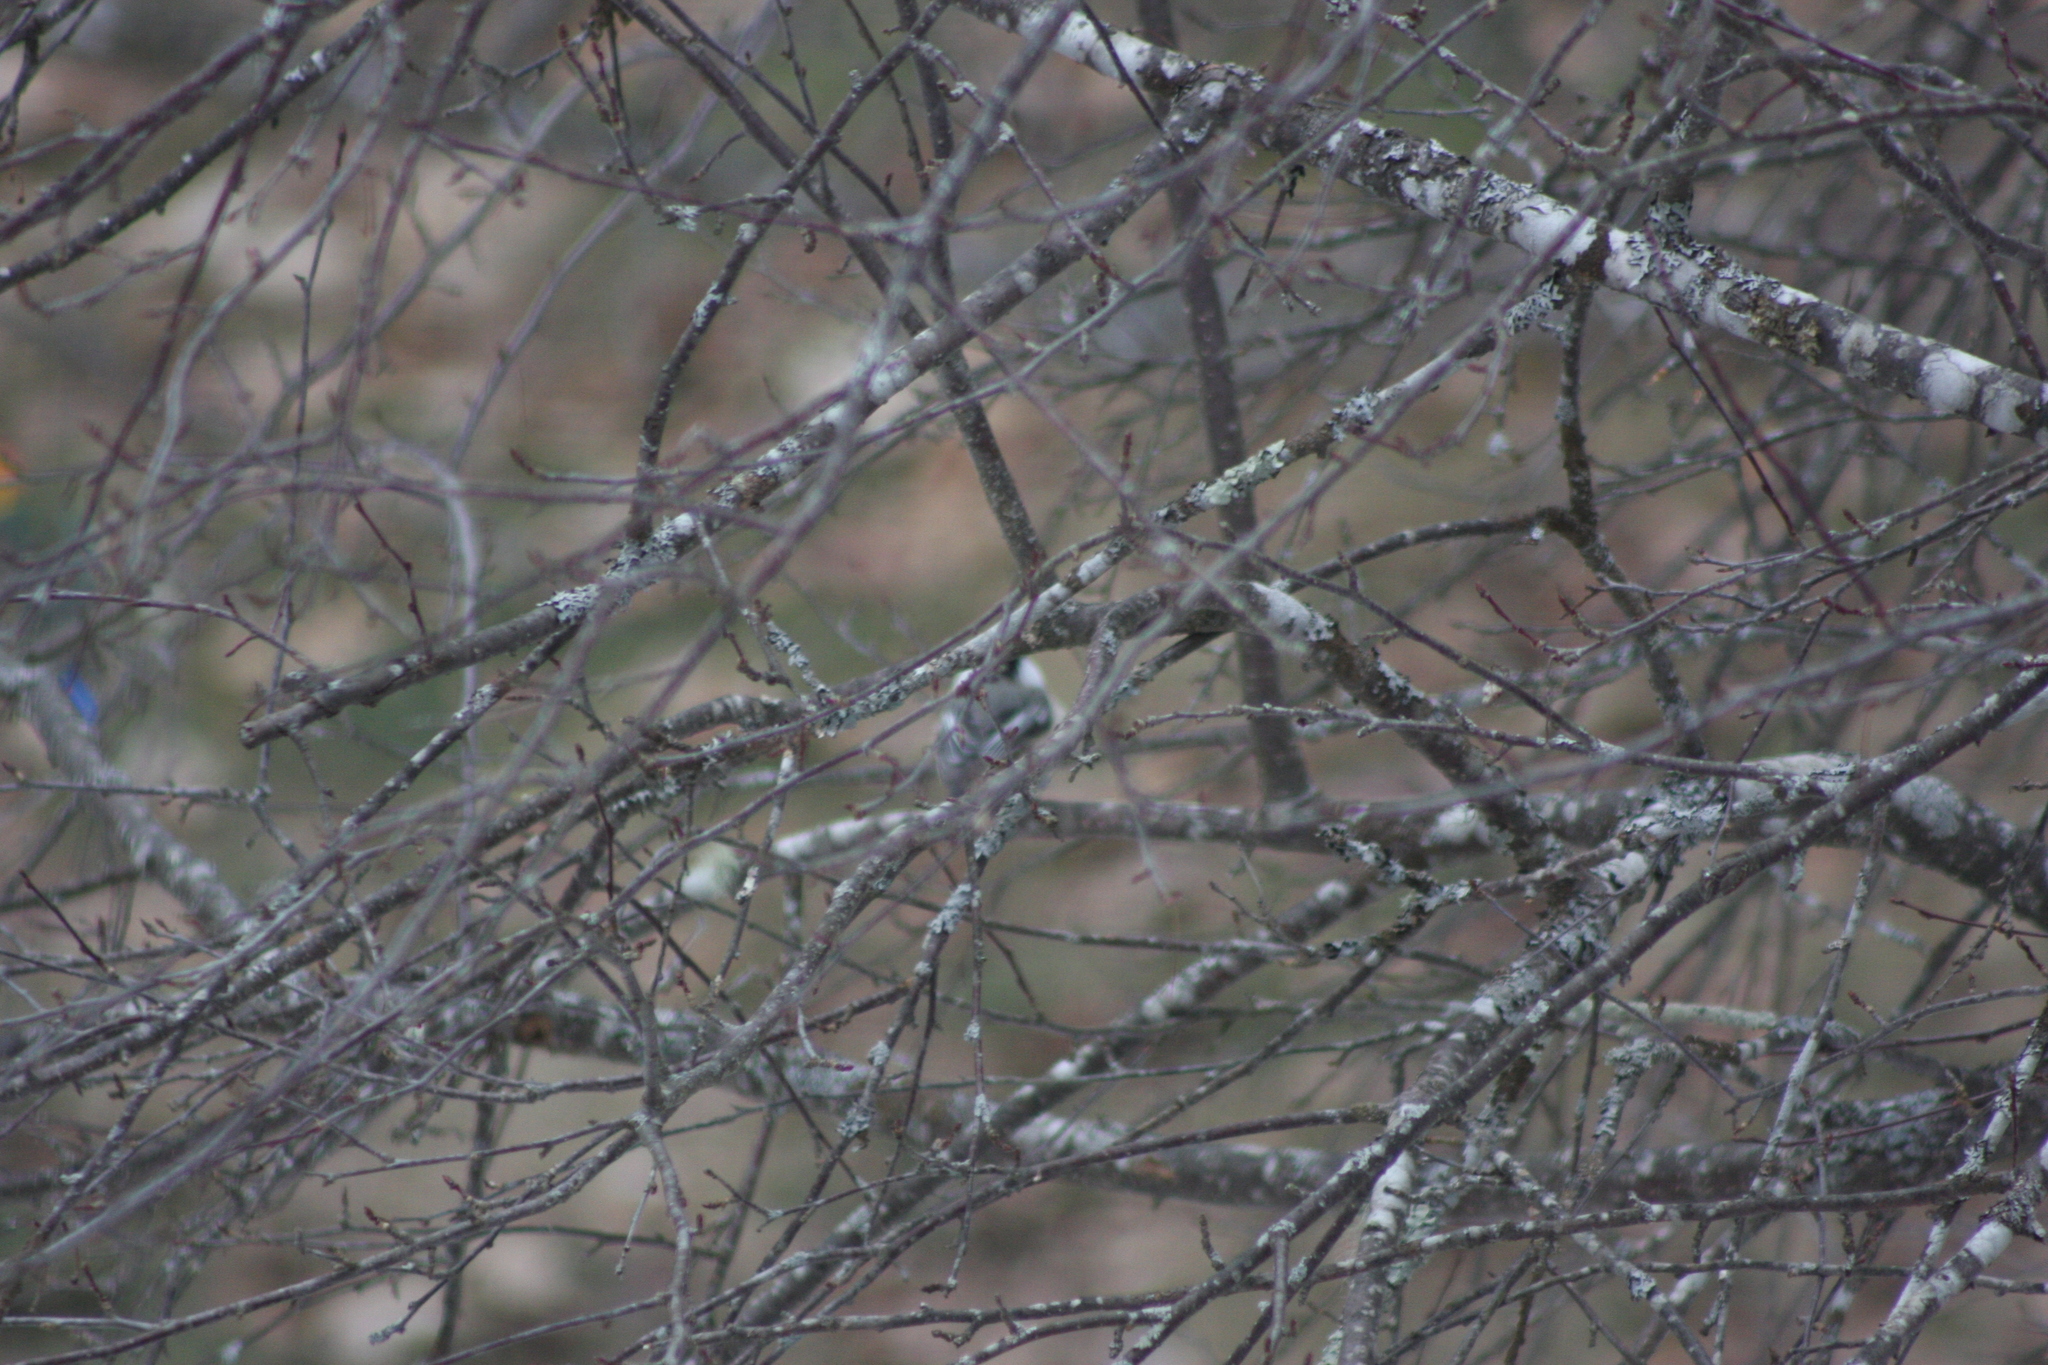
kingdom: Animalia
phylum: Chordata
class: Aves
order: Passeriformes
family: Paridae
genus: Poecile
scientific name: Poecile atricapillus
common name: Black-capped chickadee
